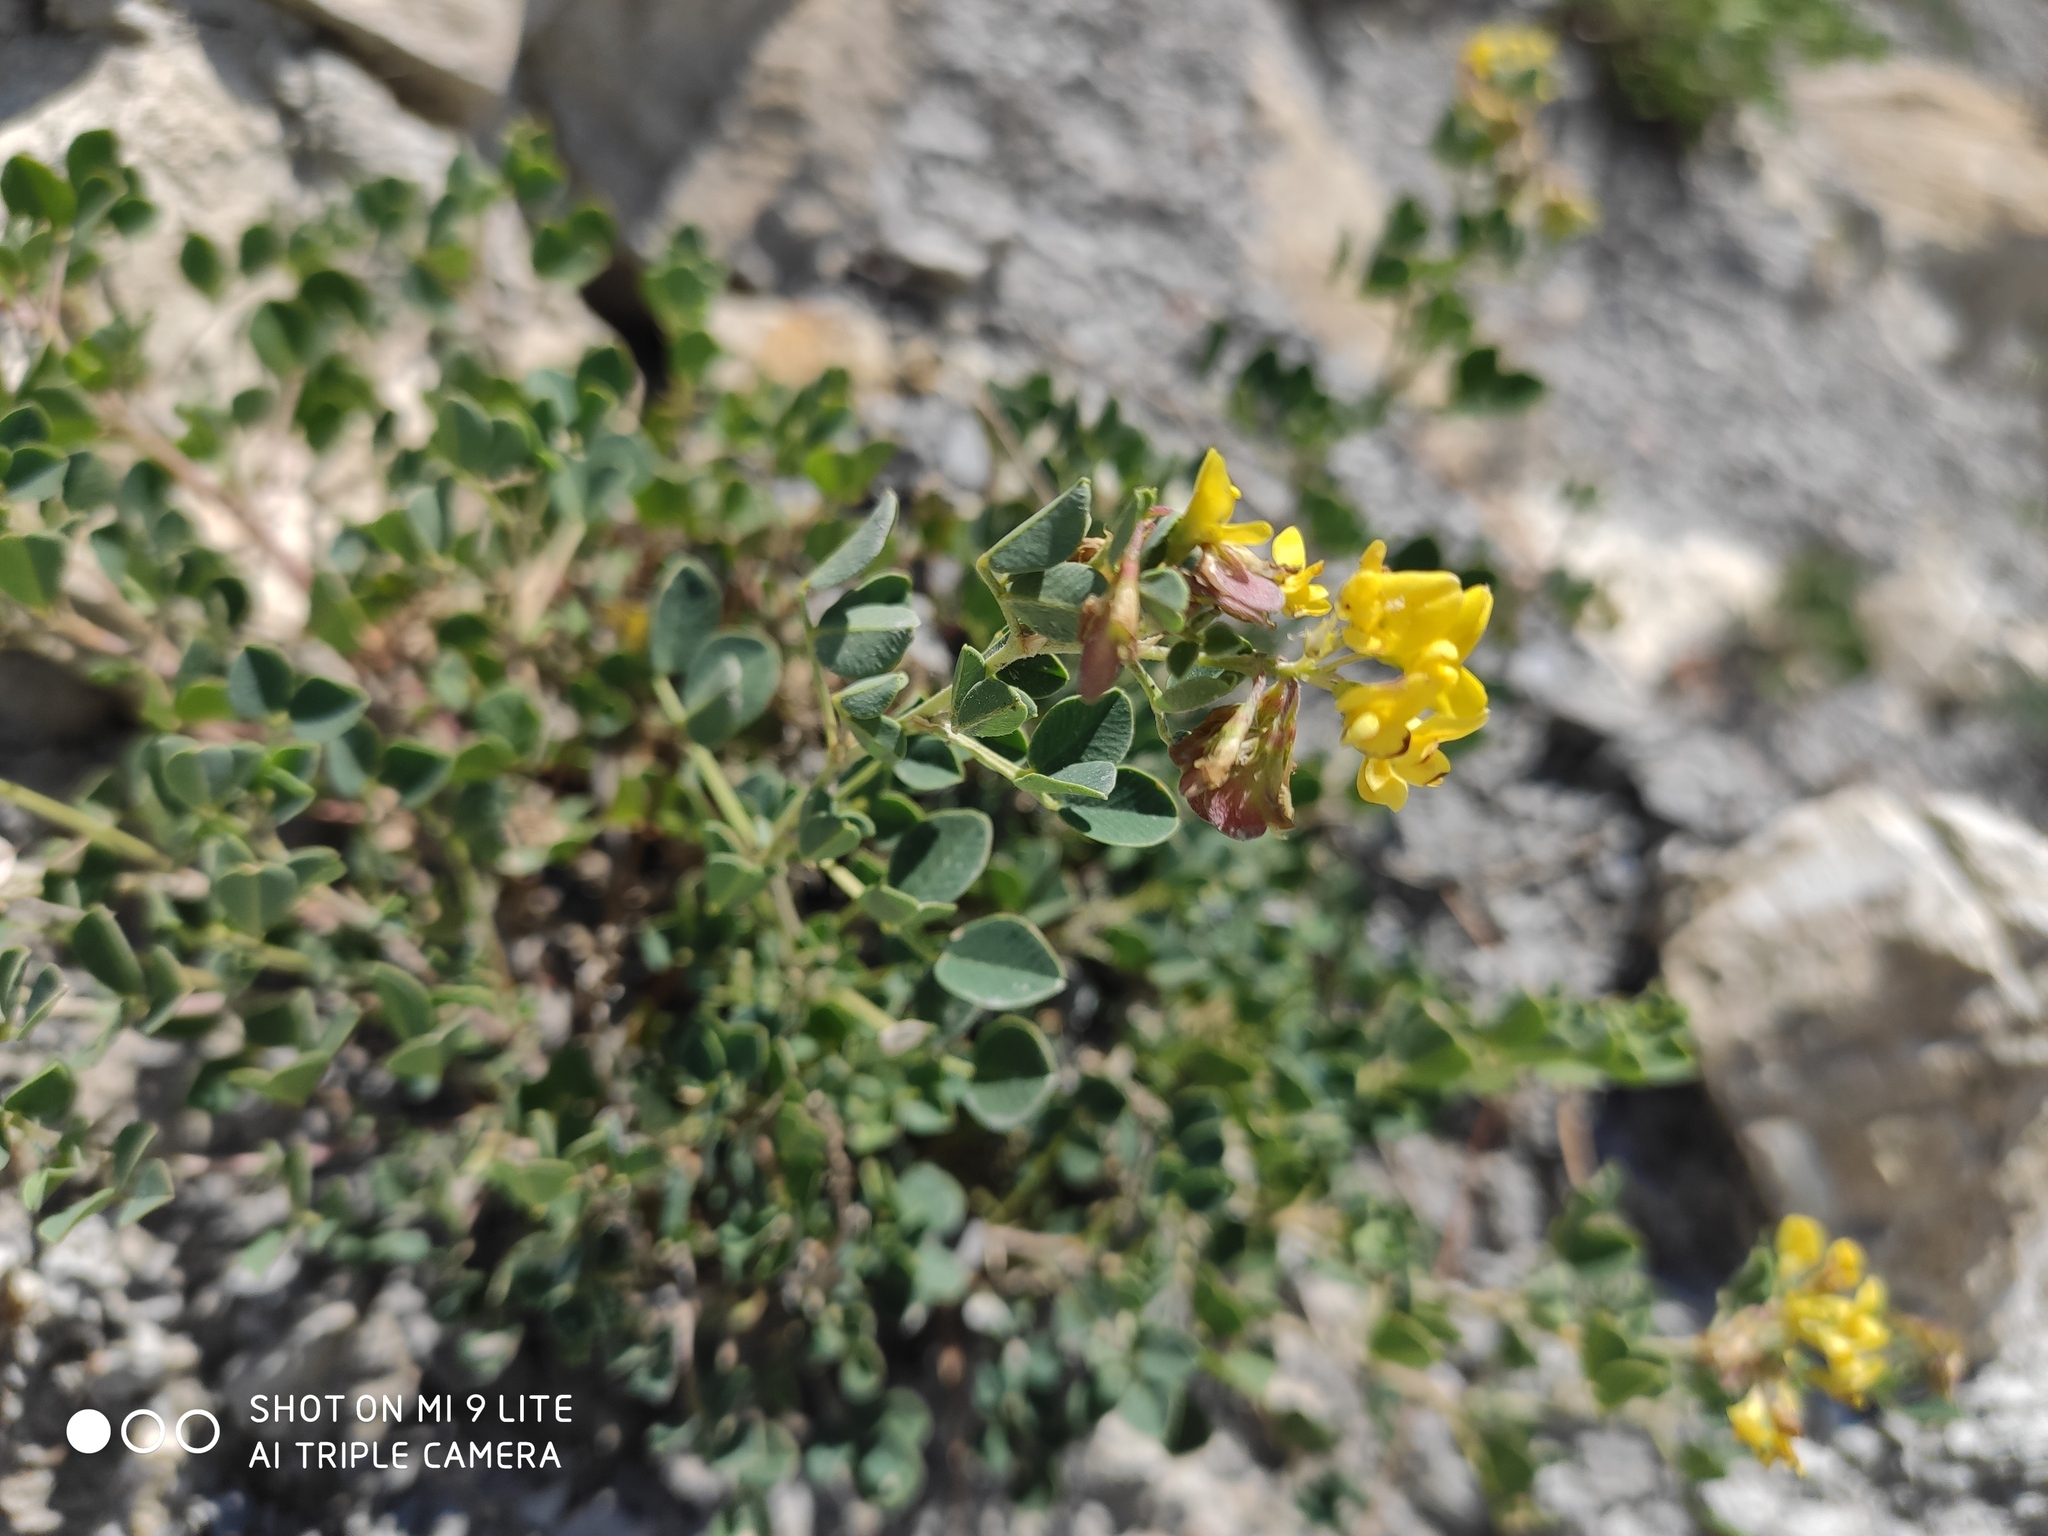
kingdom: Plantae
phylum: Tracheophyta
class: Magnoliopsida
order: Fabales
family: Fabaceae
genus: Medicago
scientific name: Medicago cretacea
